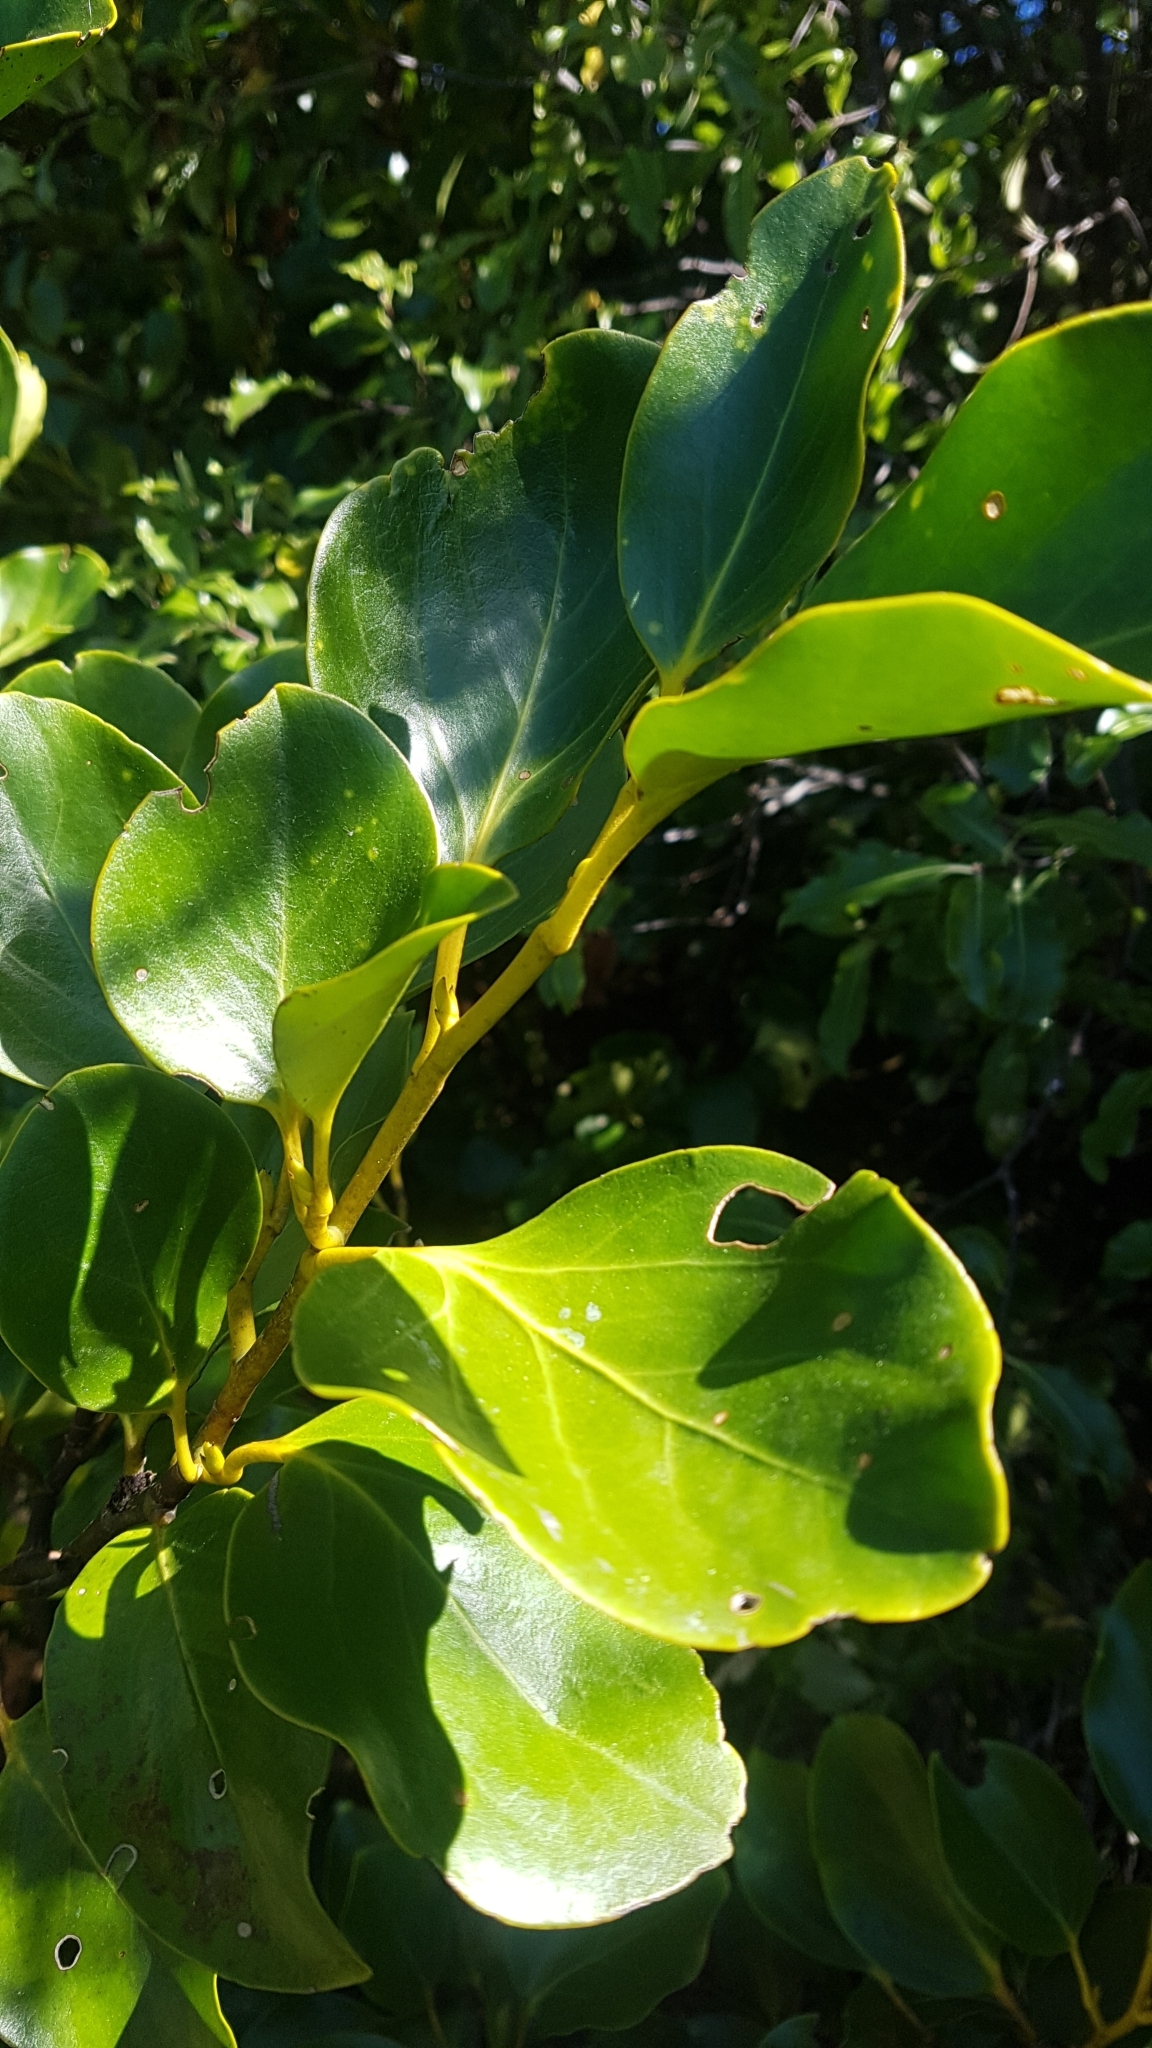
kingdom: Plantae
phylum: Tracheophyta
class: Magnoliopsida
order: Apiales
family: Griseliniaceae
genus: Griselinia
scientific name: Griselinia littoralis
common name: New zealand broadleaf
